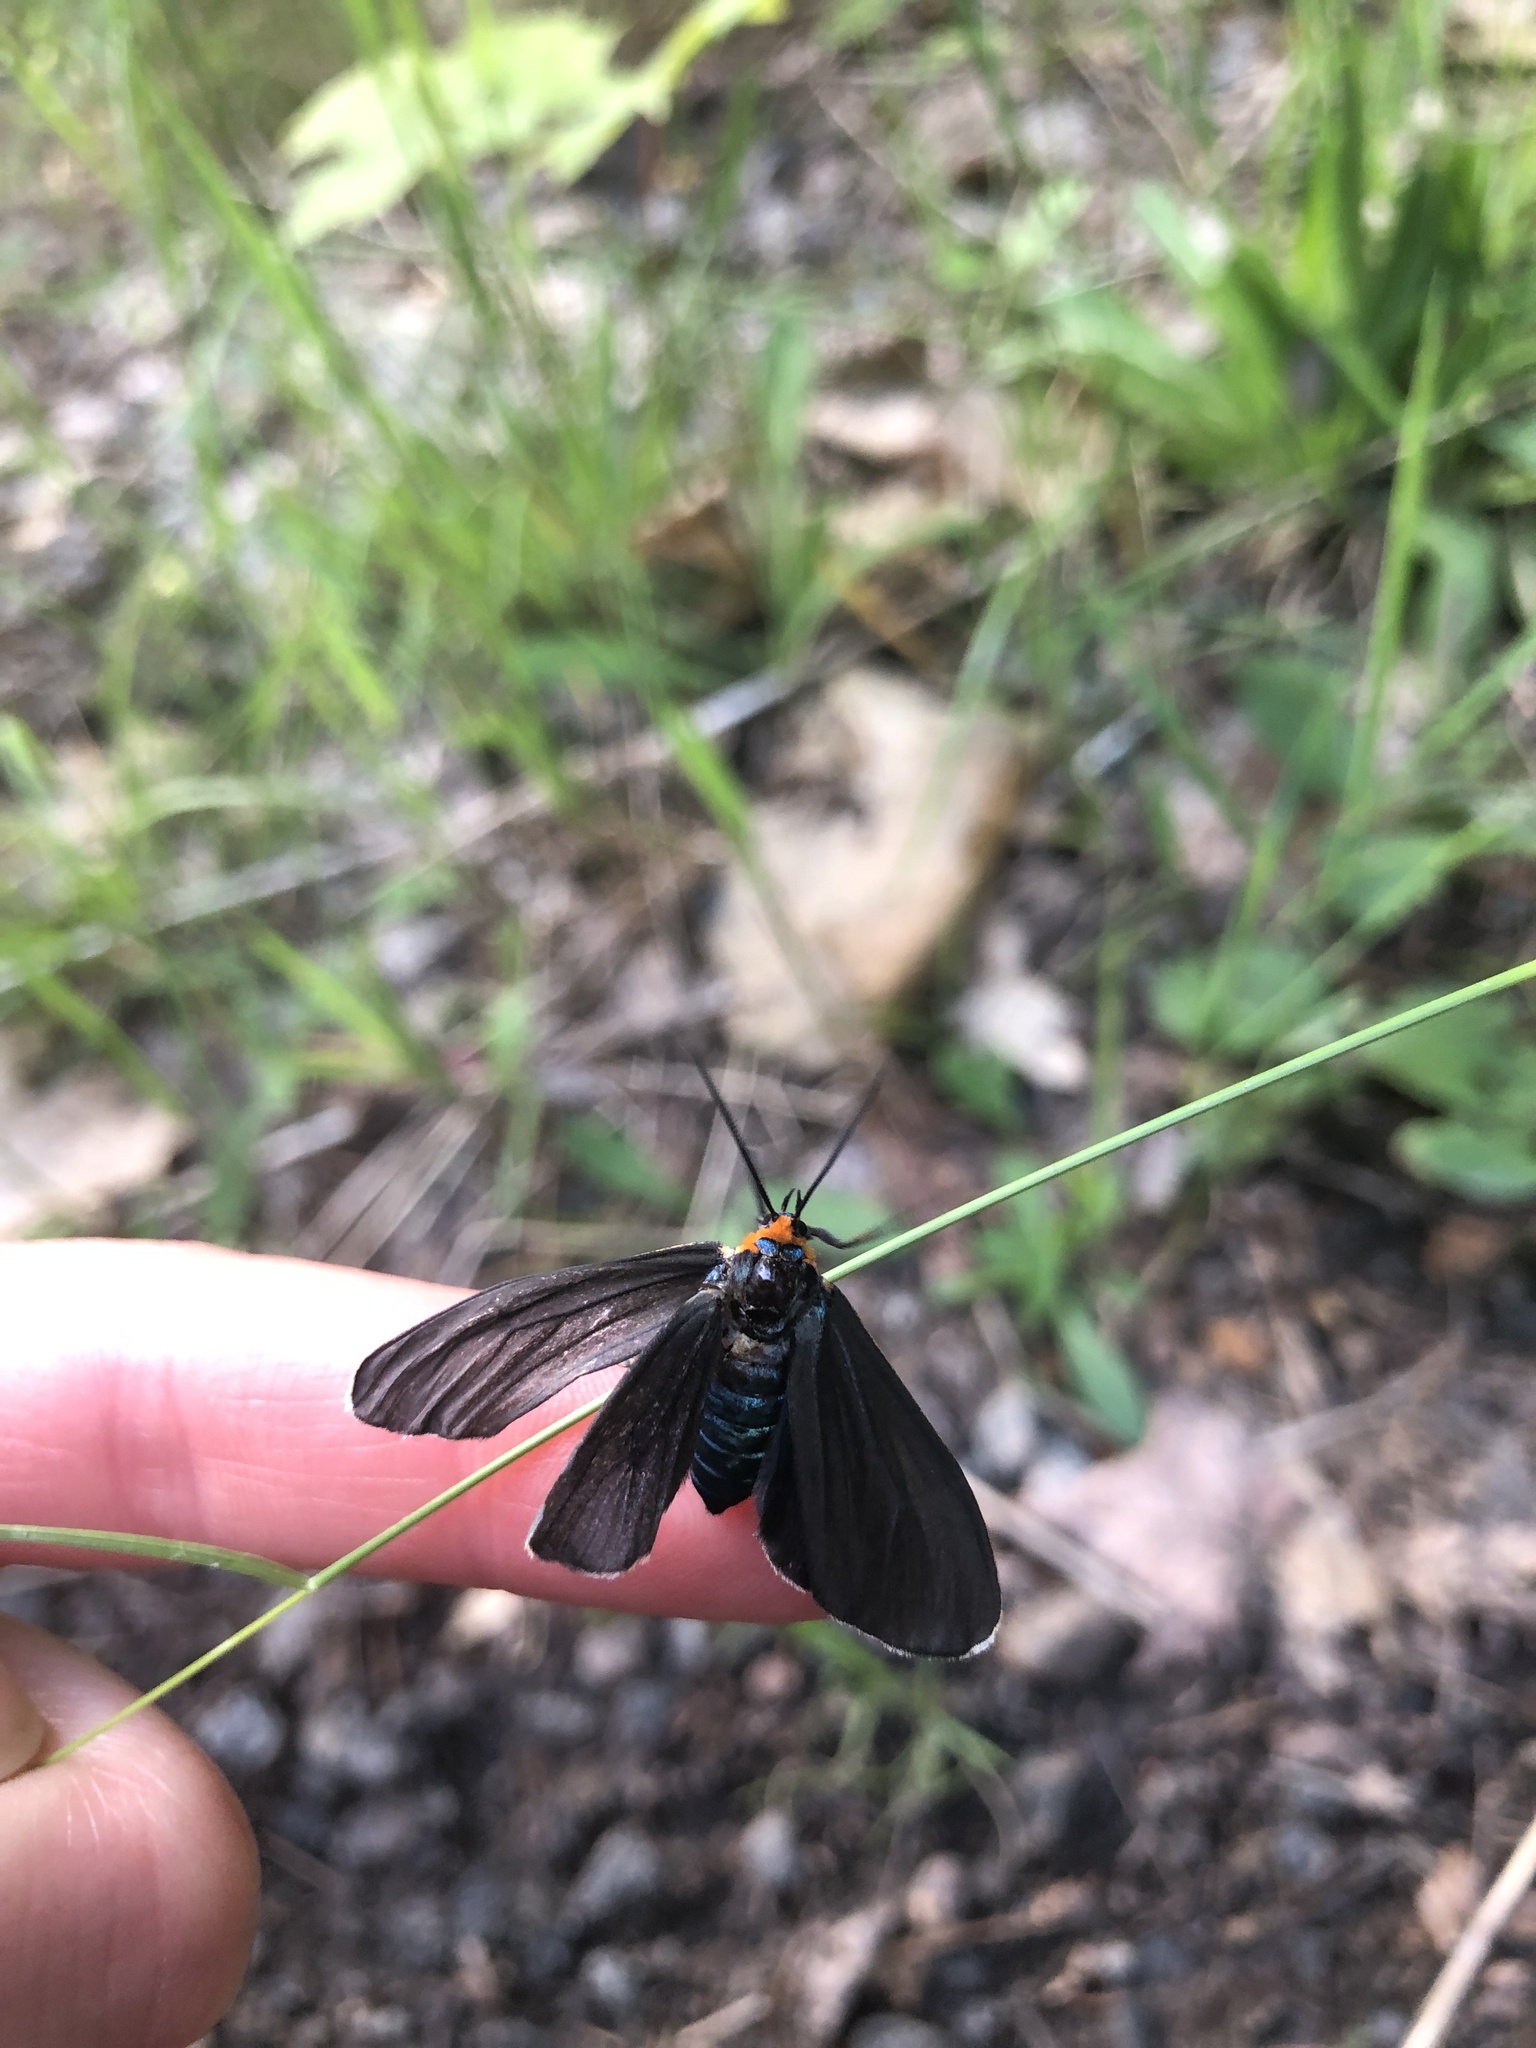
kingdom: Animalia
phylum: Arthropoda
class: Insecta
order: Lepidoptera
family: Erebidae
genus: Ctenucha
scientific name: Ctenucha virginica
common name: Virginia ctenucha moth
